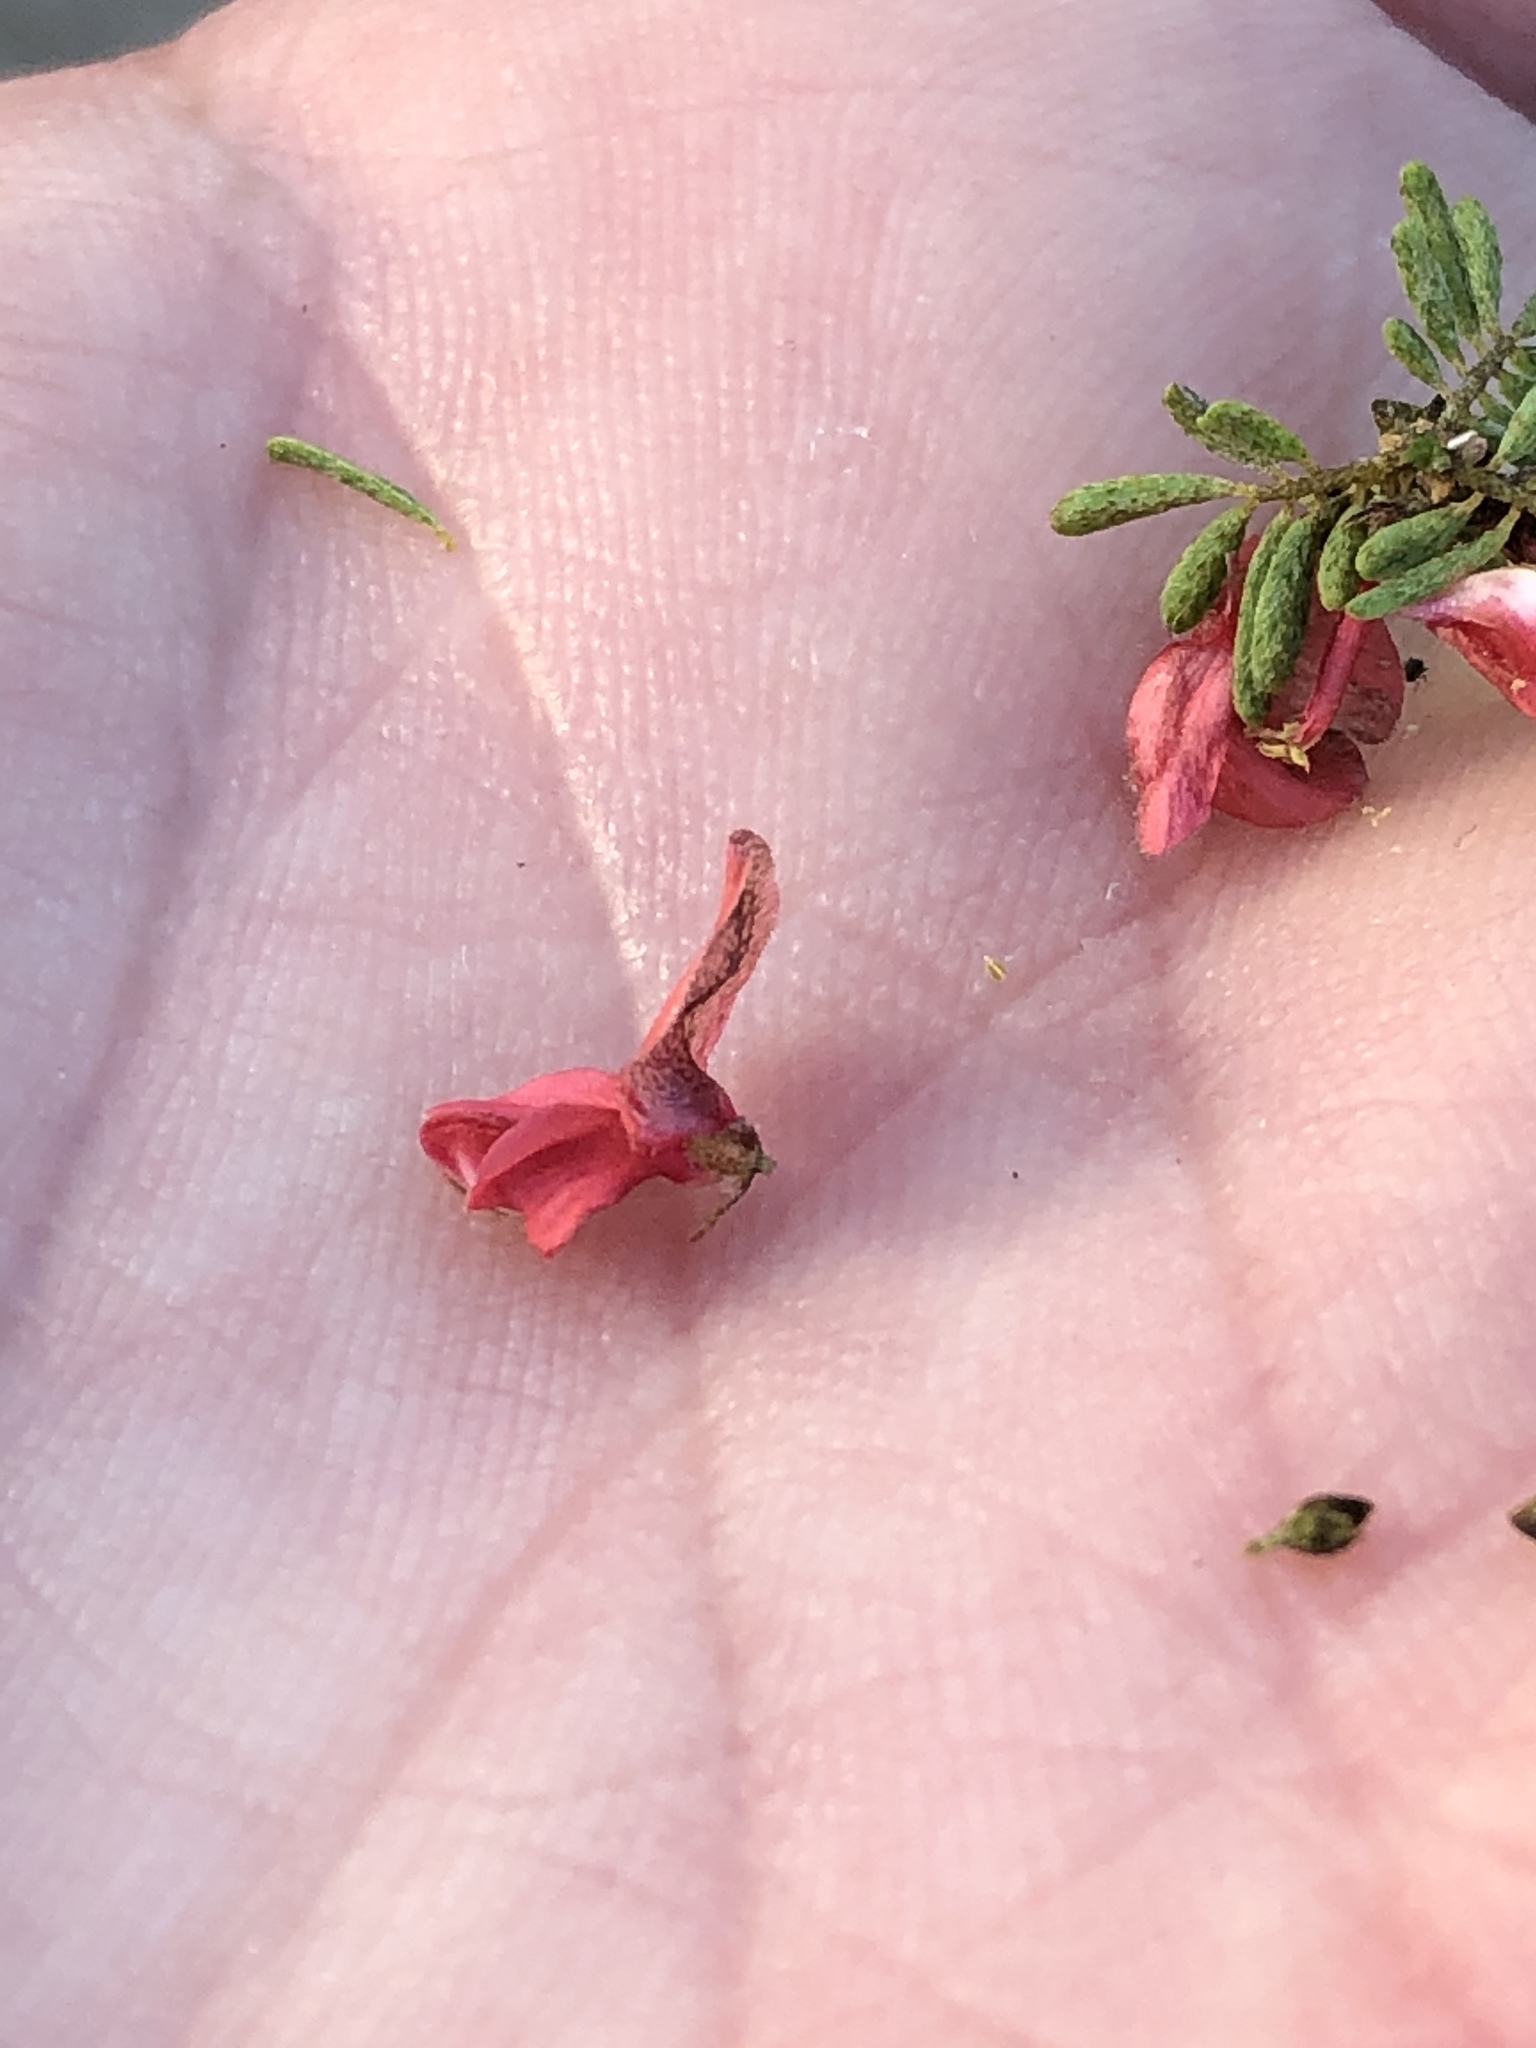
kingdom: Plantae
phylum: Tracheophyta
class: Magnoliopsida
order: Fabales
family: Fabaceae
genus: Indigofera
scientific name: Indigofera stricta
